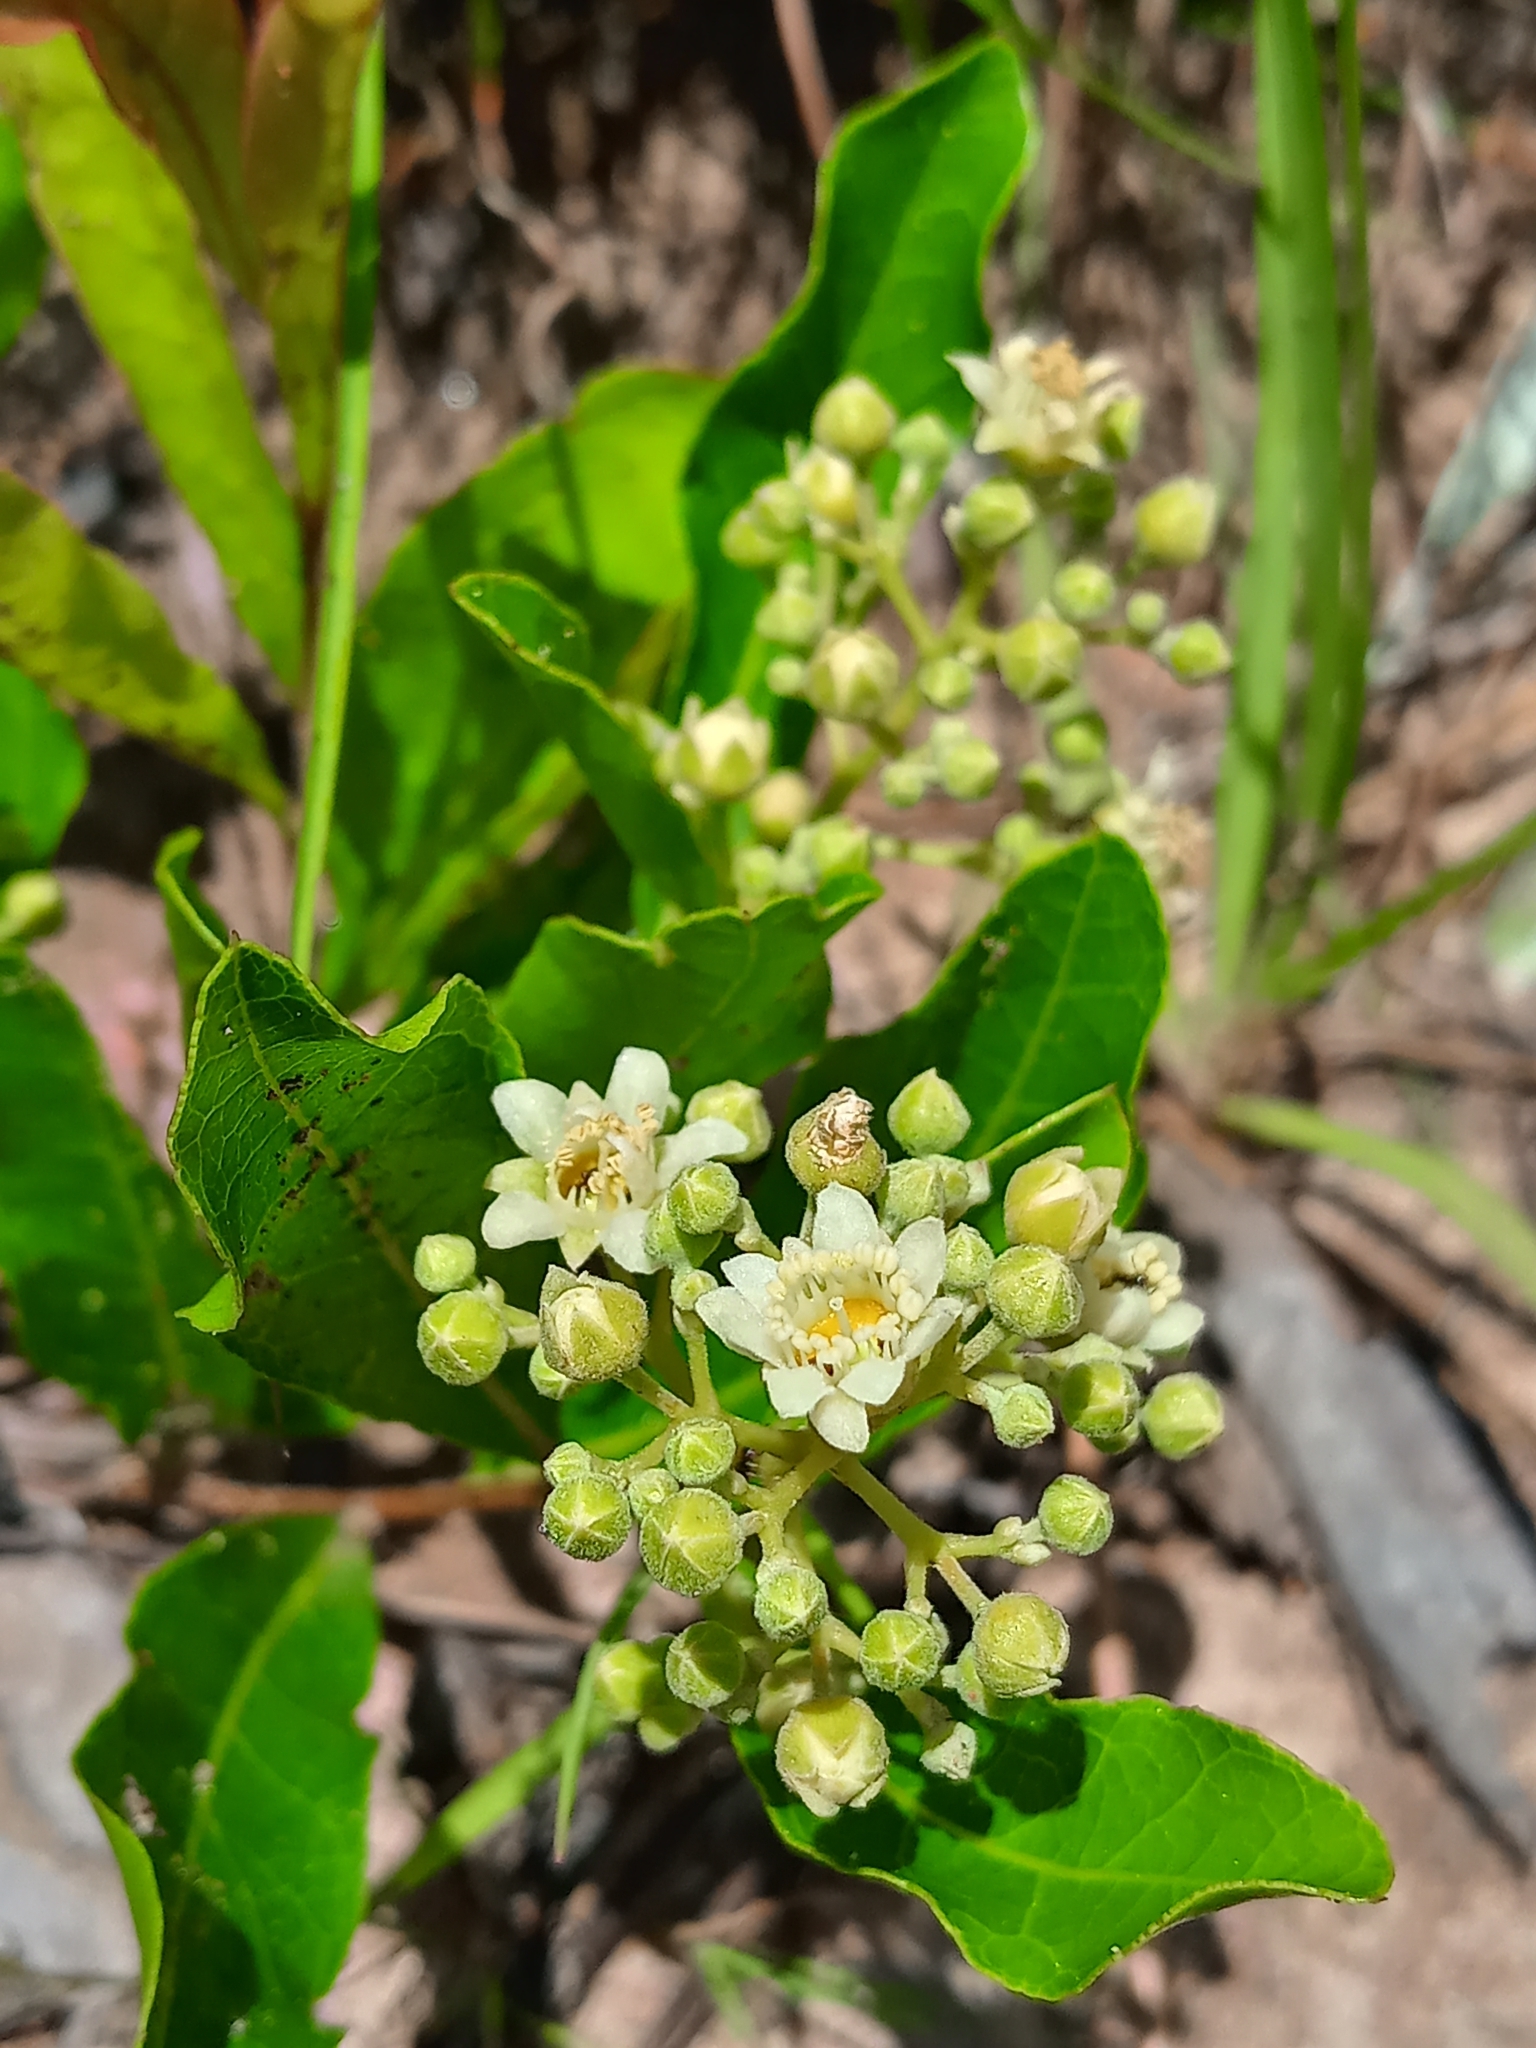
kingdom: Plantae
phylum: Tracheophyta
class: Magnoliopsida
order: Malpighiales
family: Chrysobalanaceae
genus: Geobalanus
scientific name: Geobalanus oblongifolius
